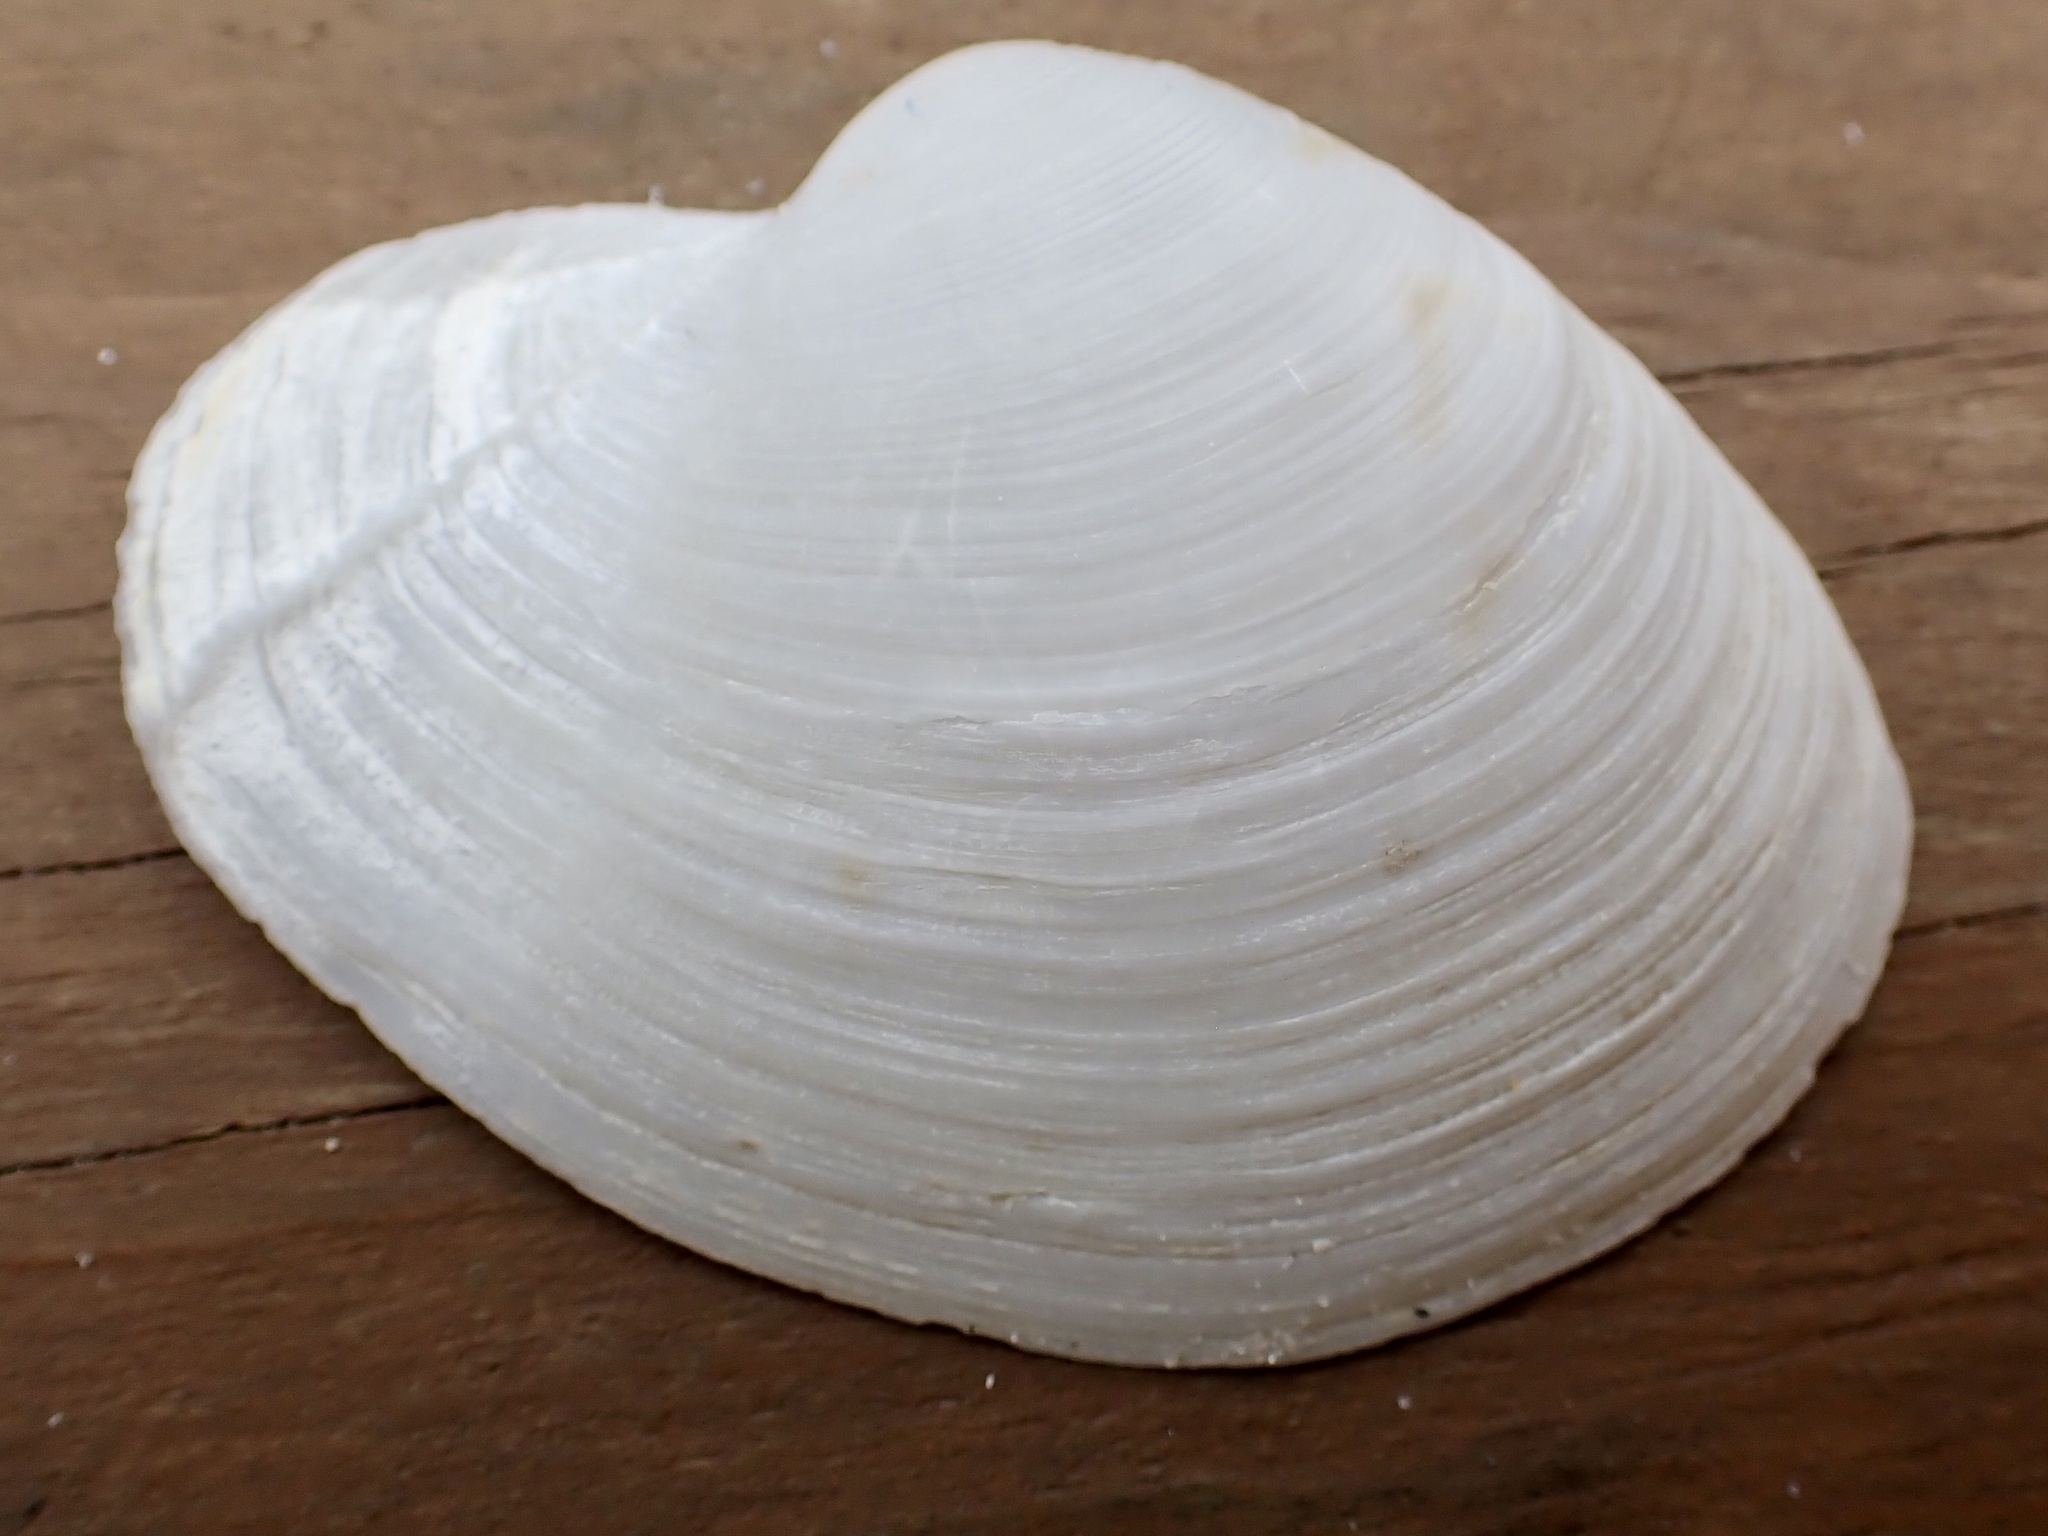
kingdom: Animalia
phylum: Mollusca
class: Bivalvia
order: Venerida
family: Anatinellidae
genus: Anatina
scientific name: Anatina anatina
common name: Smooth duckclam
